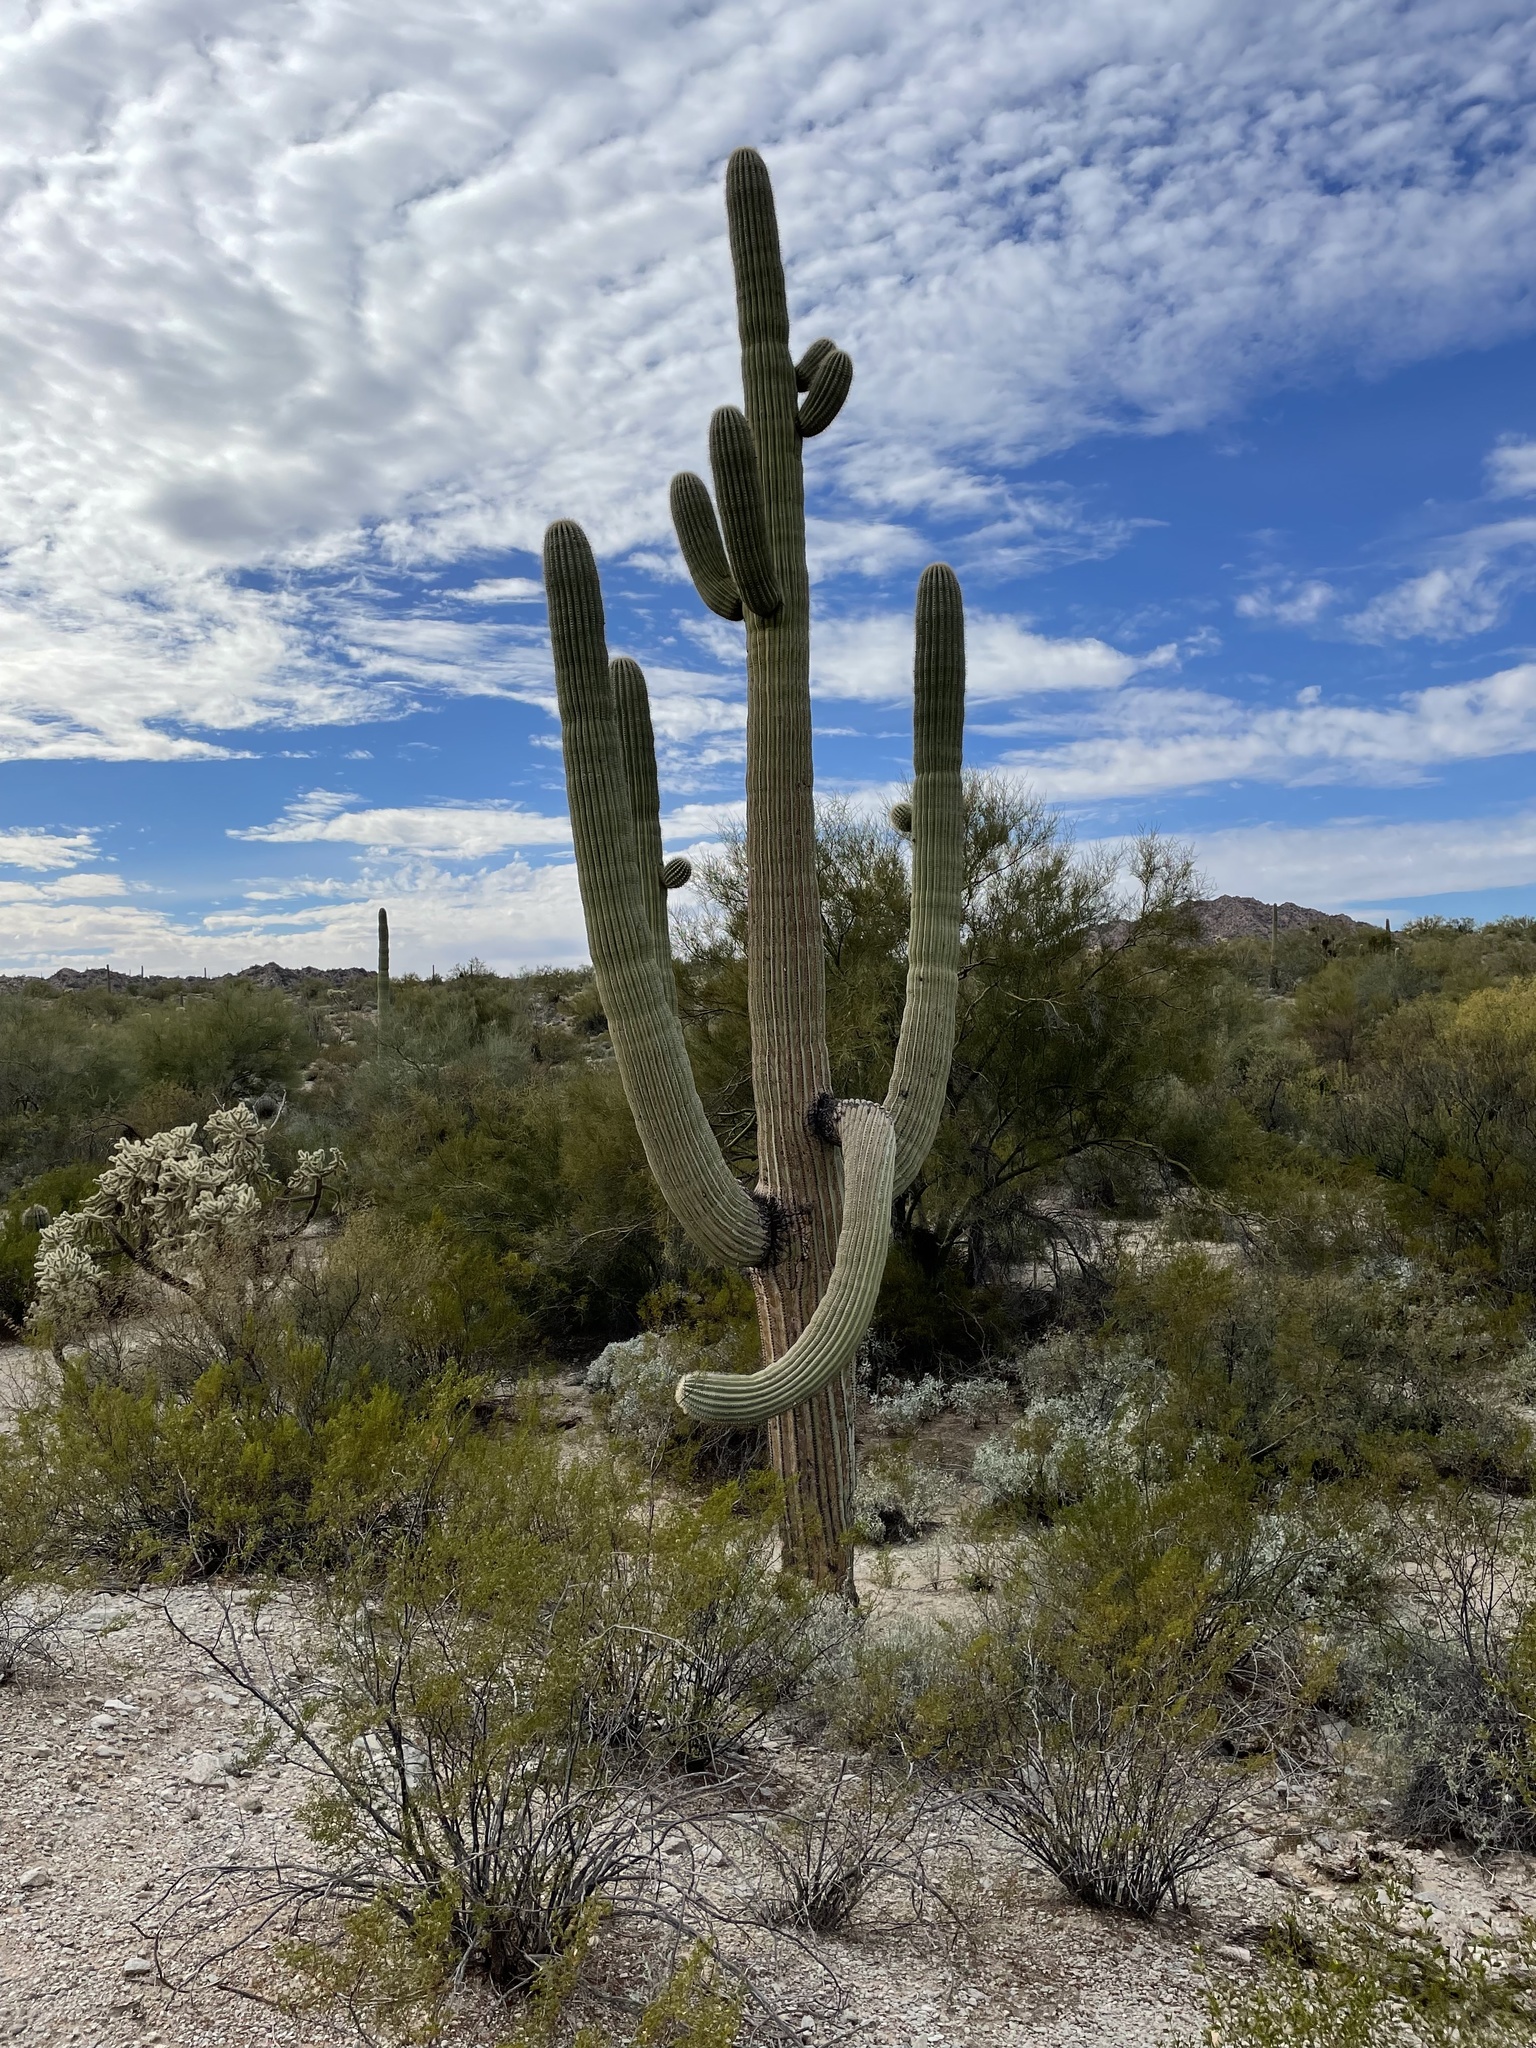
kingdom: Plantae
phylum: Tracheophyta
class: Magnoliopsida
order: Caryophyllales
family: Cactaceae
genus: Carnegiea
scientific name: Carnegiea gigantea
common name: Saguaro
